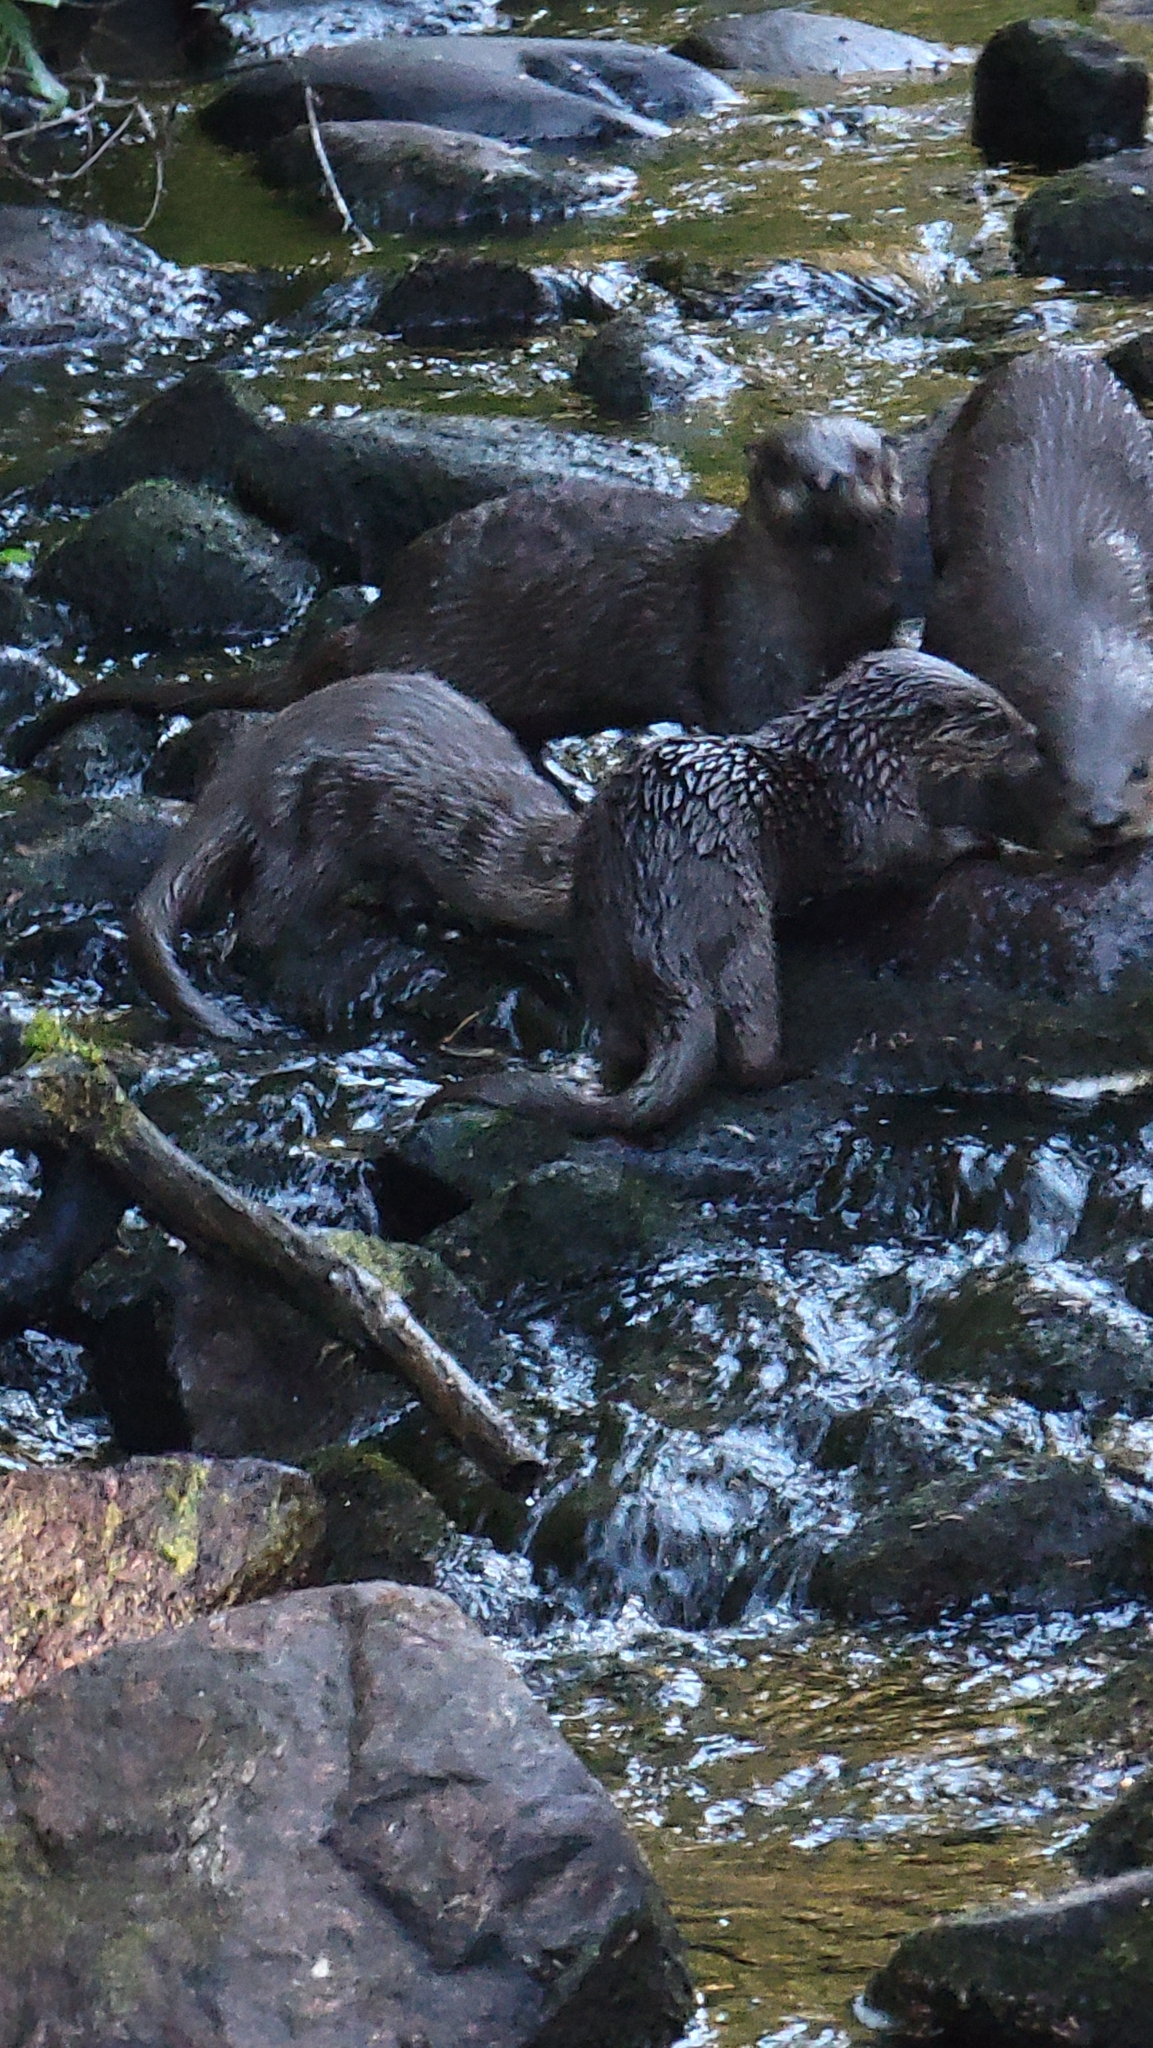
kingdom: Animalia
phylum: Chordata
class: Mammalia
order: Carnivora
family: Mustelidae
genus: Lontra
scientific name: Lontra canadensis
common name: North american river otter
